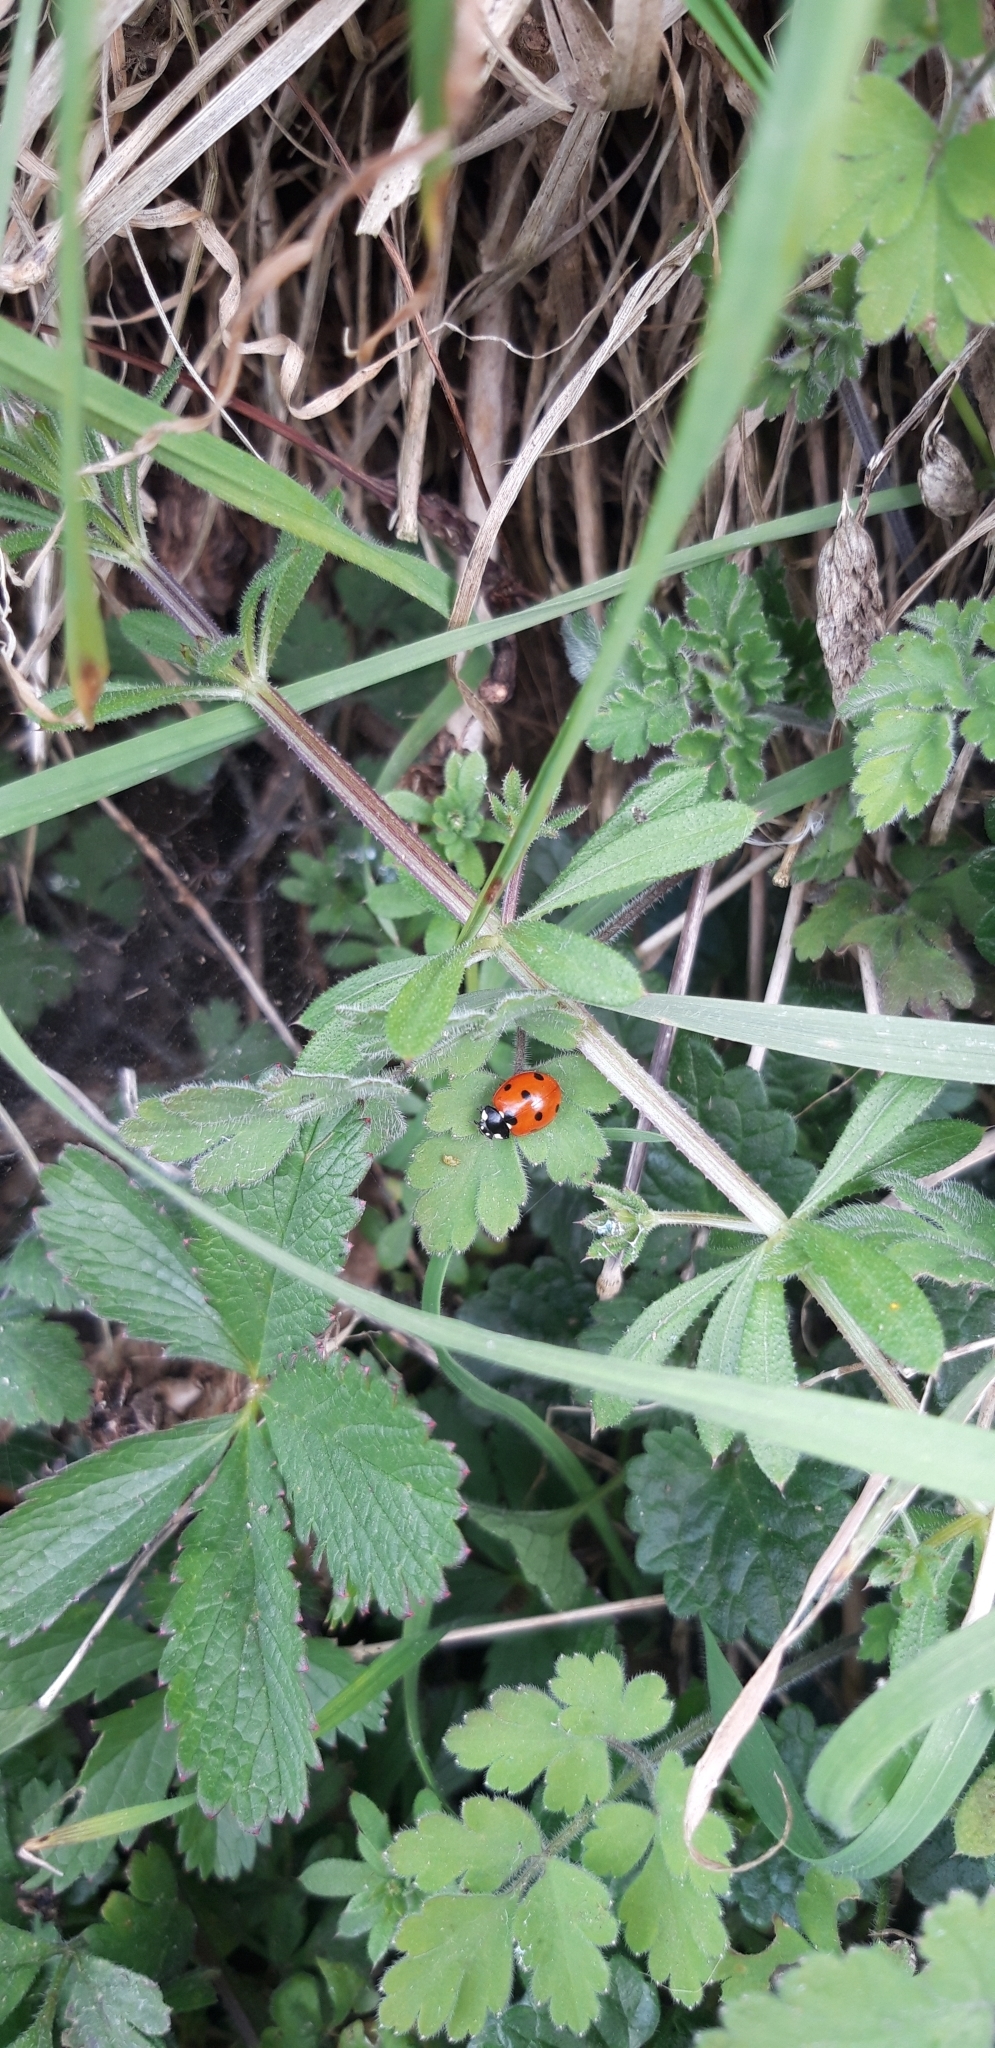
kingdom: Animalia
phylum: Arthropoda
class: Insecta
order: Coleoptera
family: Coccinellidae
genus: Coccinella
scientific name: Coccinella septempunctata
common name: Sevenspotted lady beetle
